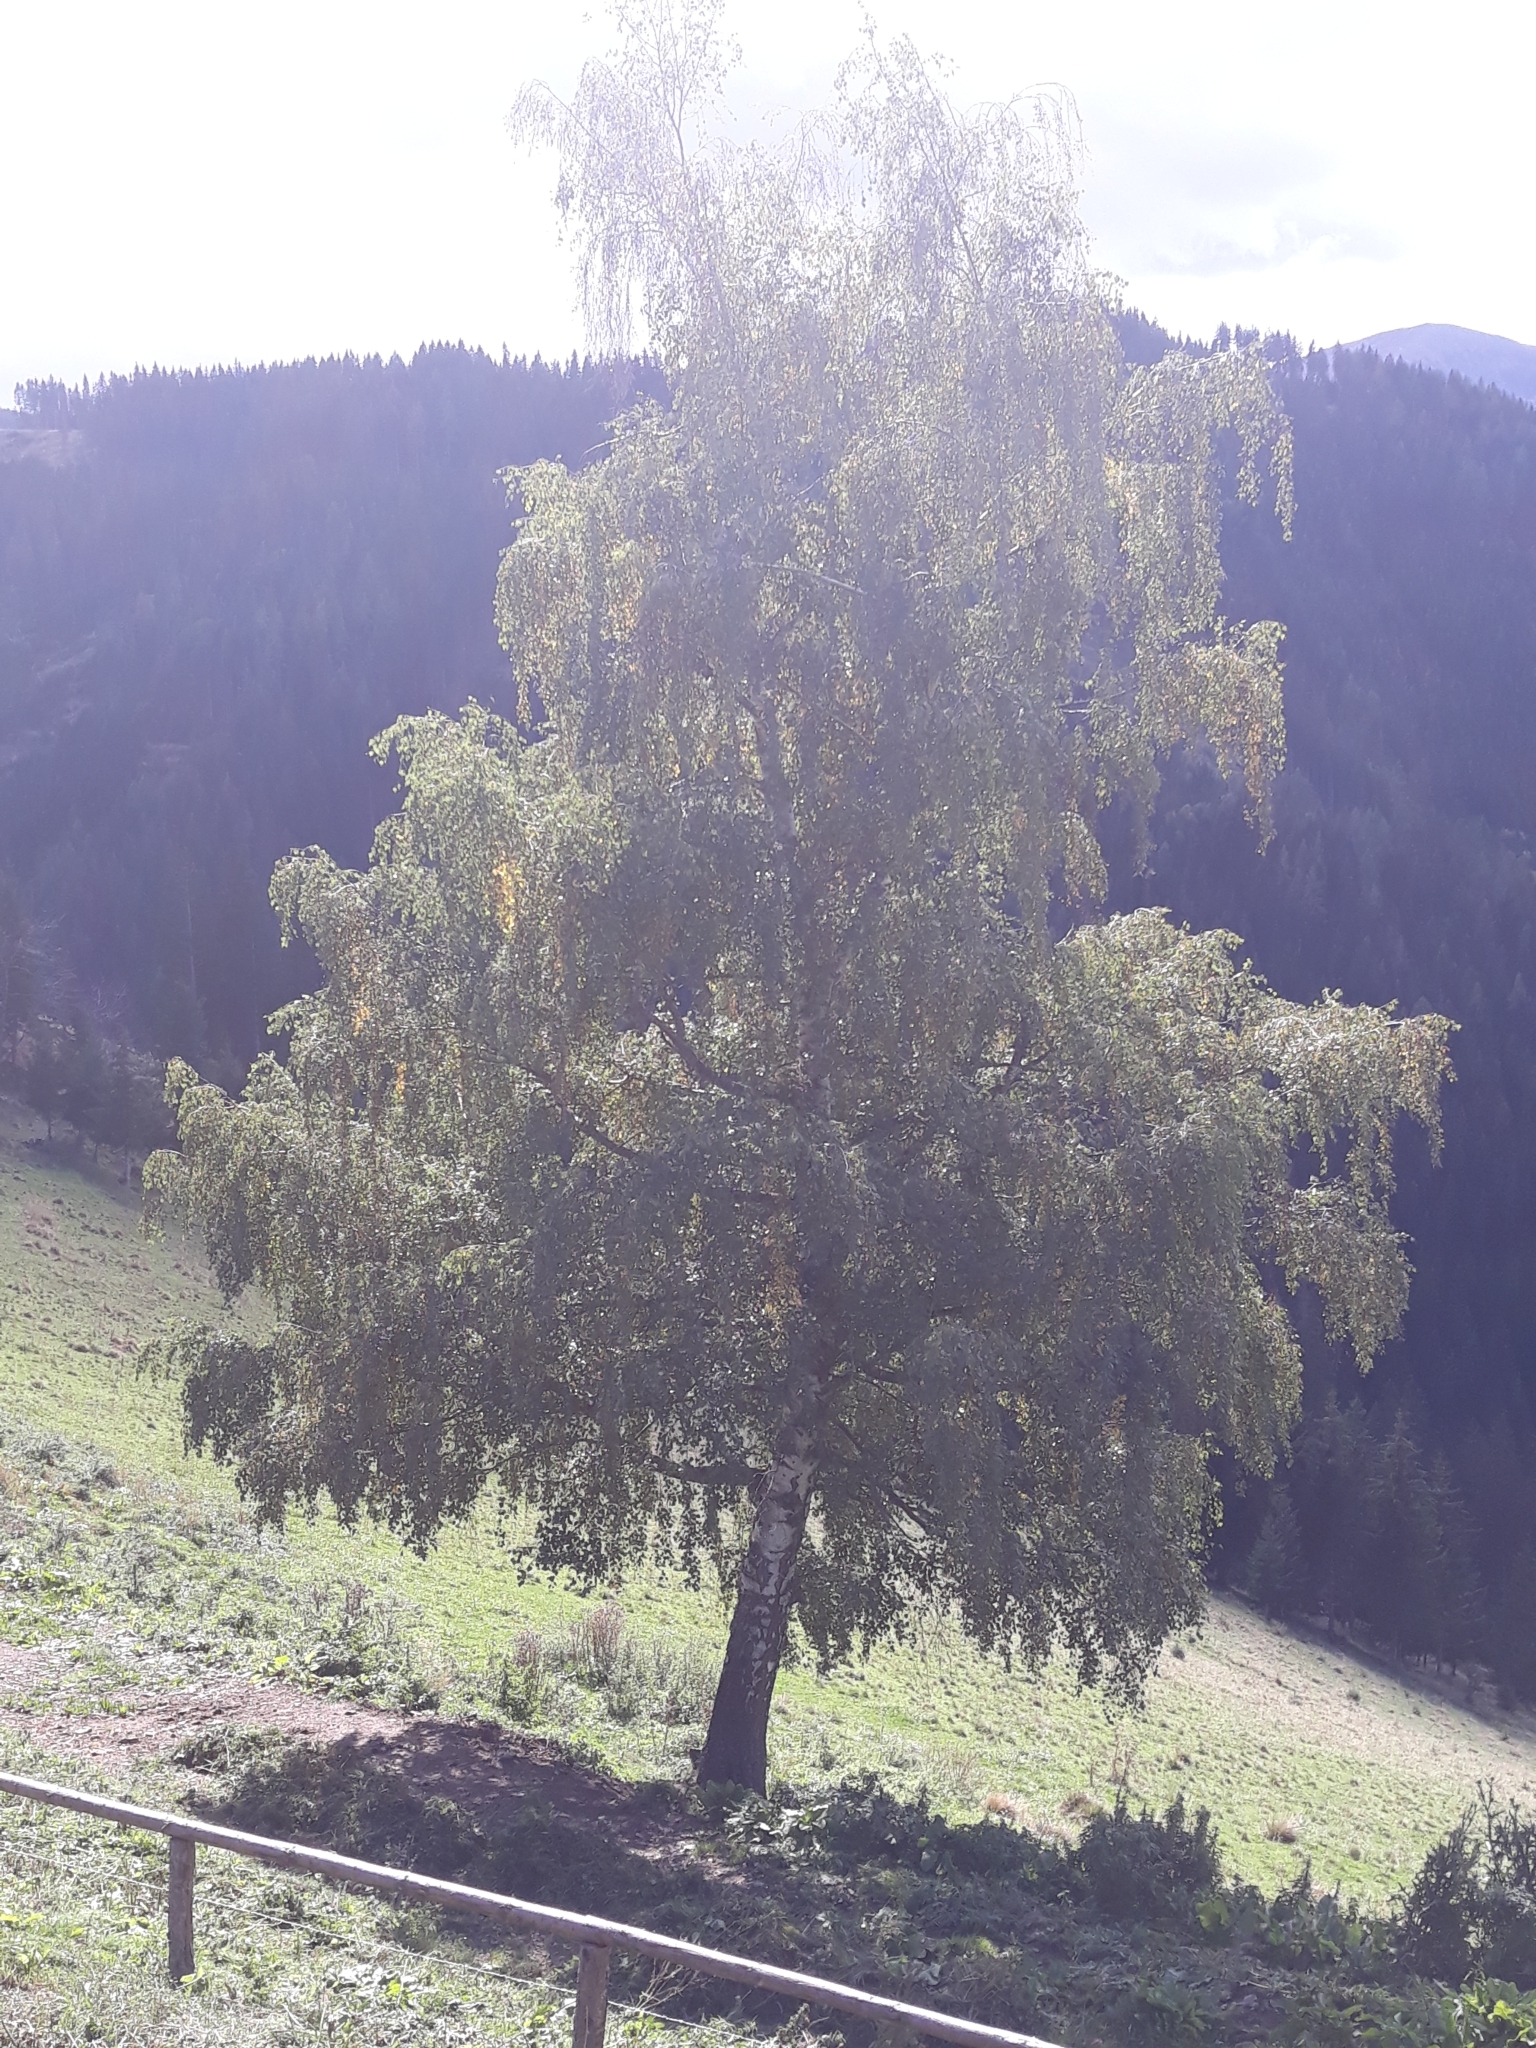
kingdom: Plantae
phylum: Tracheophyta
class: Magnoliopsida
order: Fagales
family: Betulaceae
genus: Betula
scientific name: Betula pendula
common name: Silver birch
